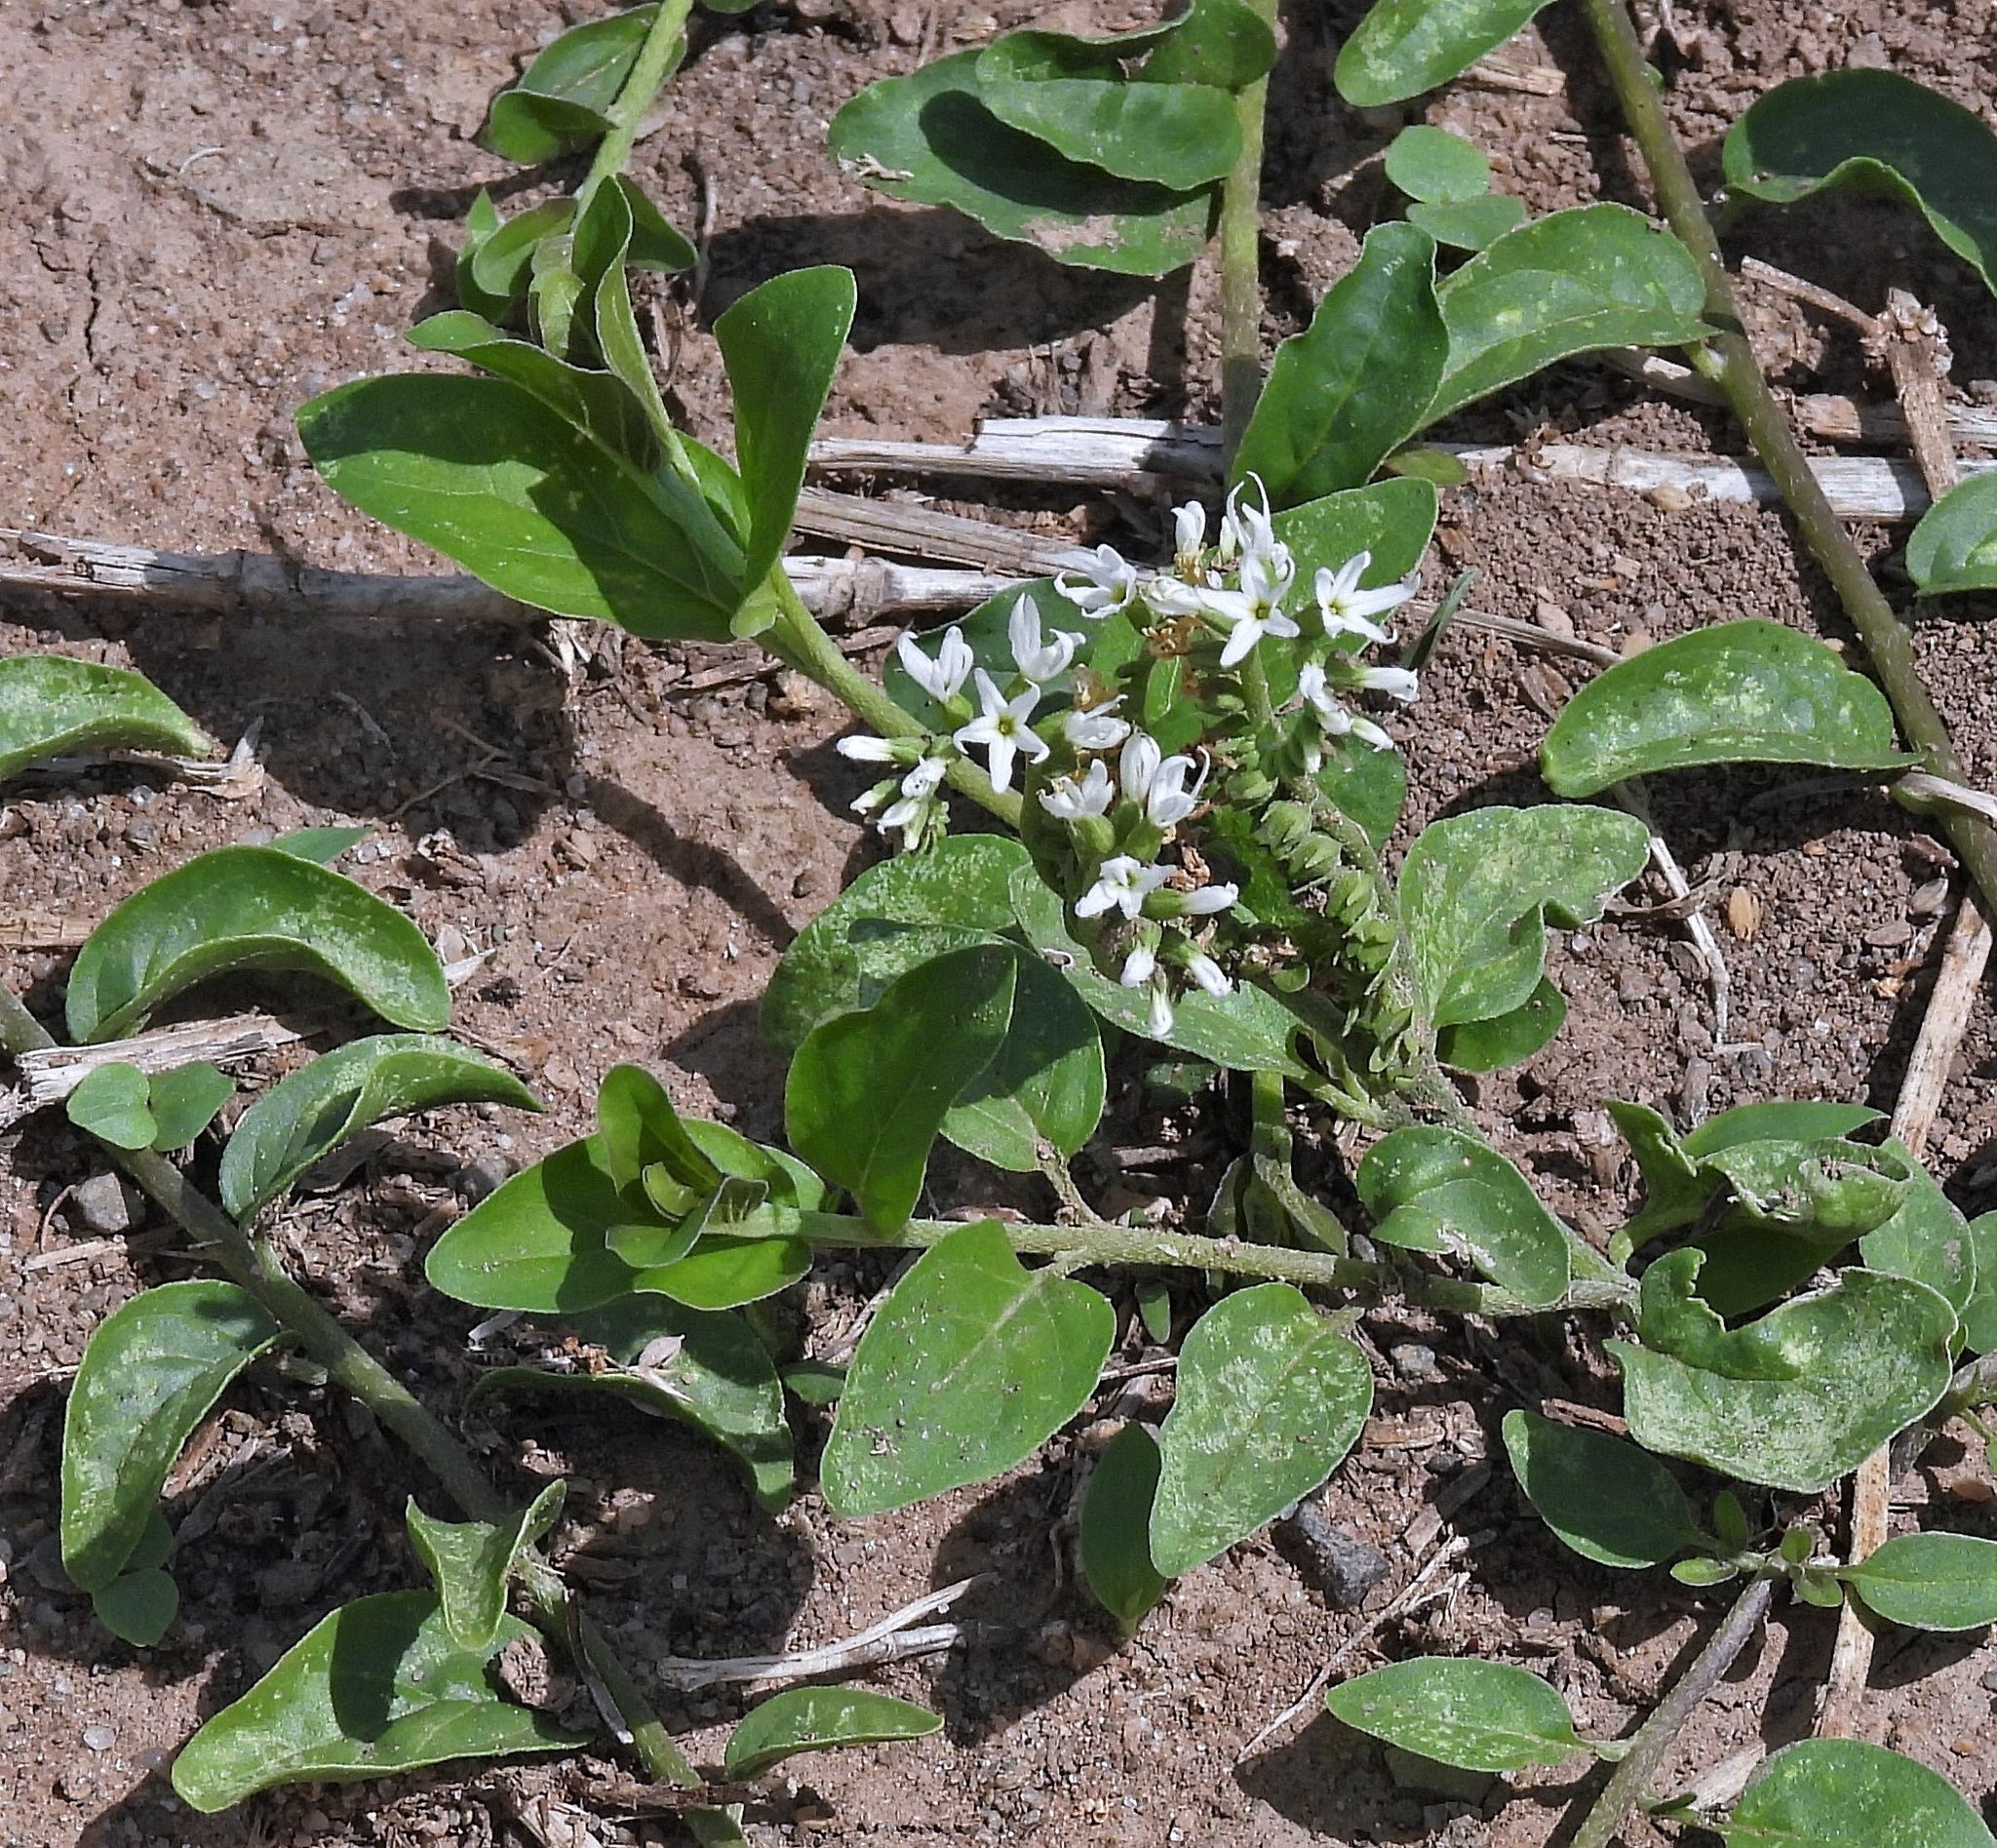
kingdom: Plantae
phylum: Tracheophyta
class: Magnoliopsida
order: Boraginales
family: Heliotropiaceae
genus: Heliotropium
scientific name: Heliotropium veronicifolium
